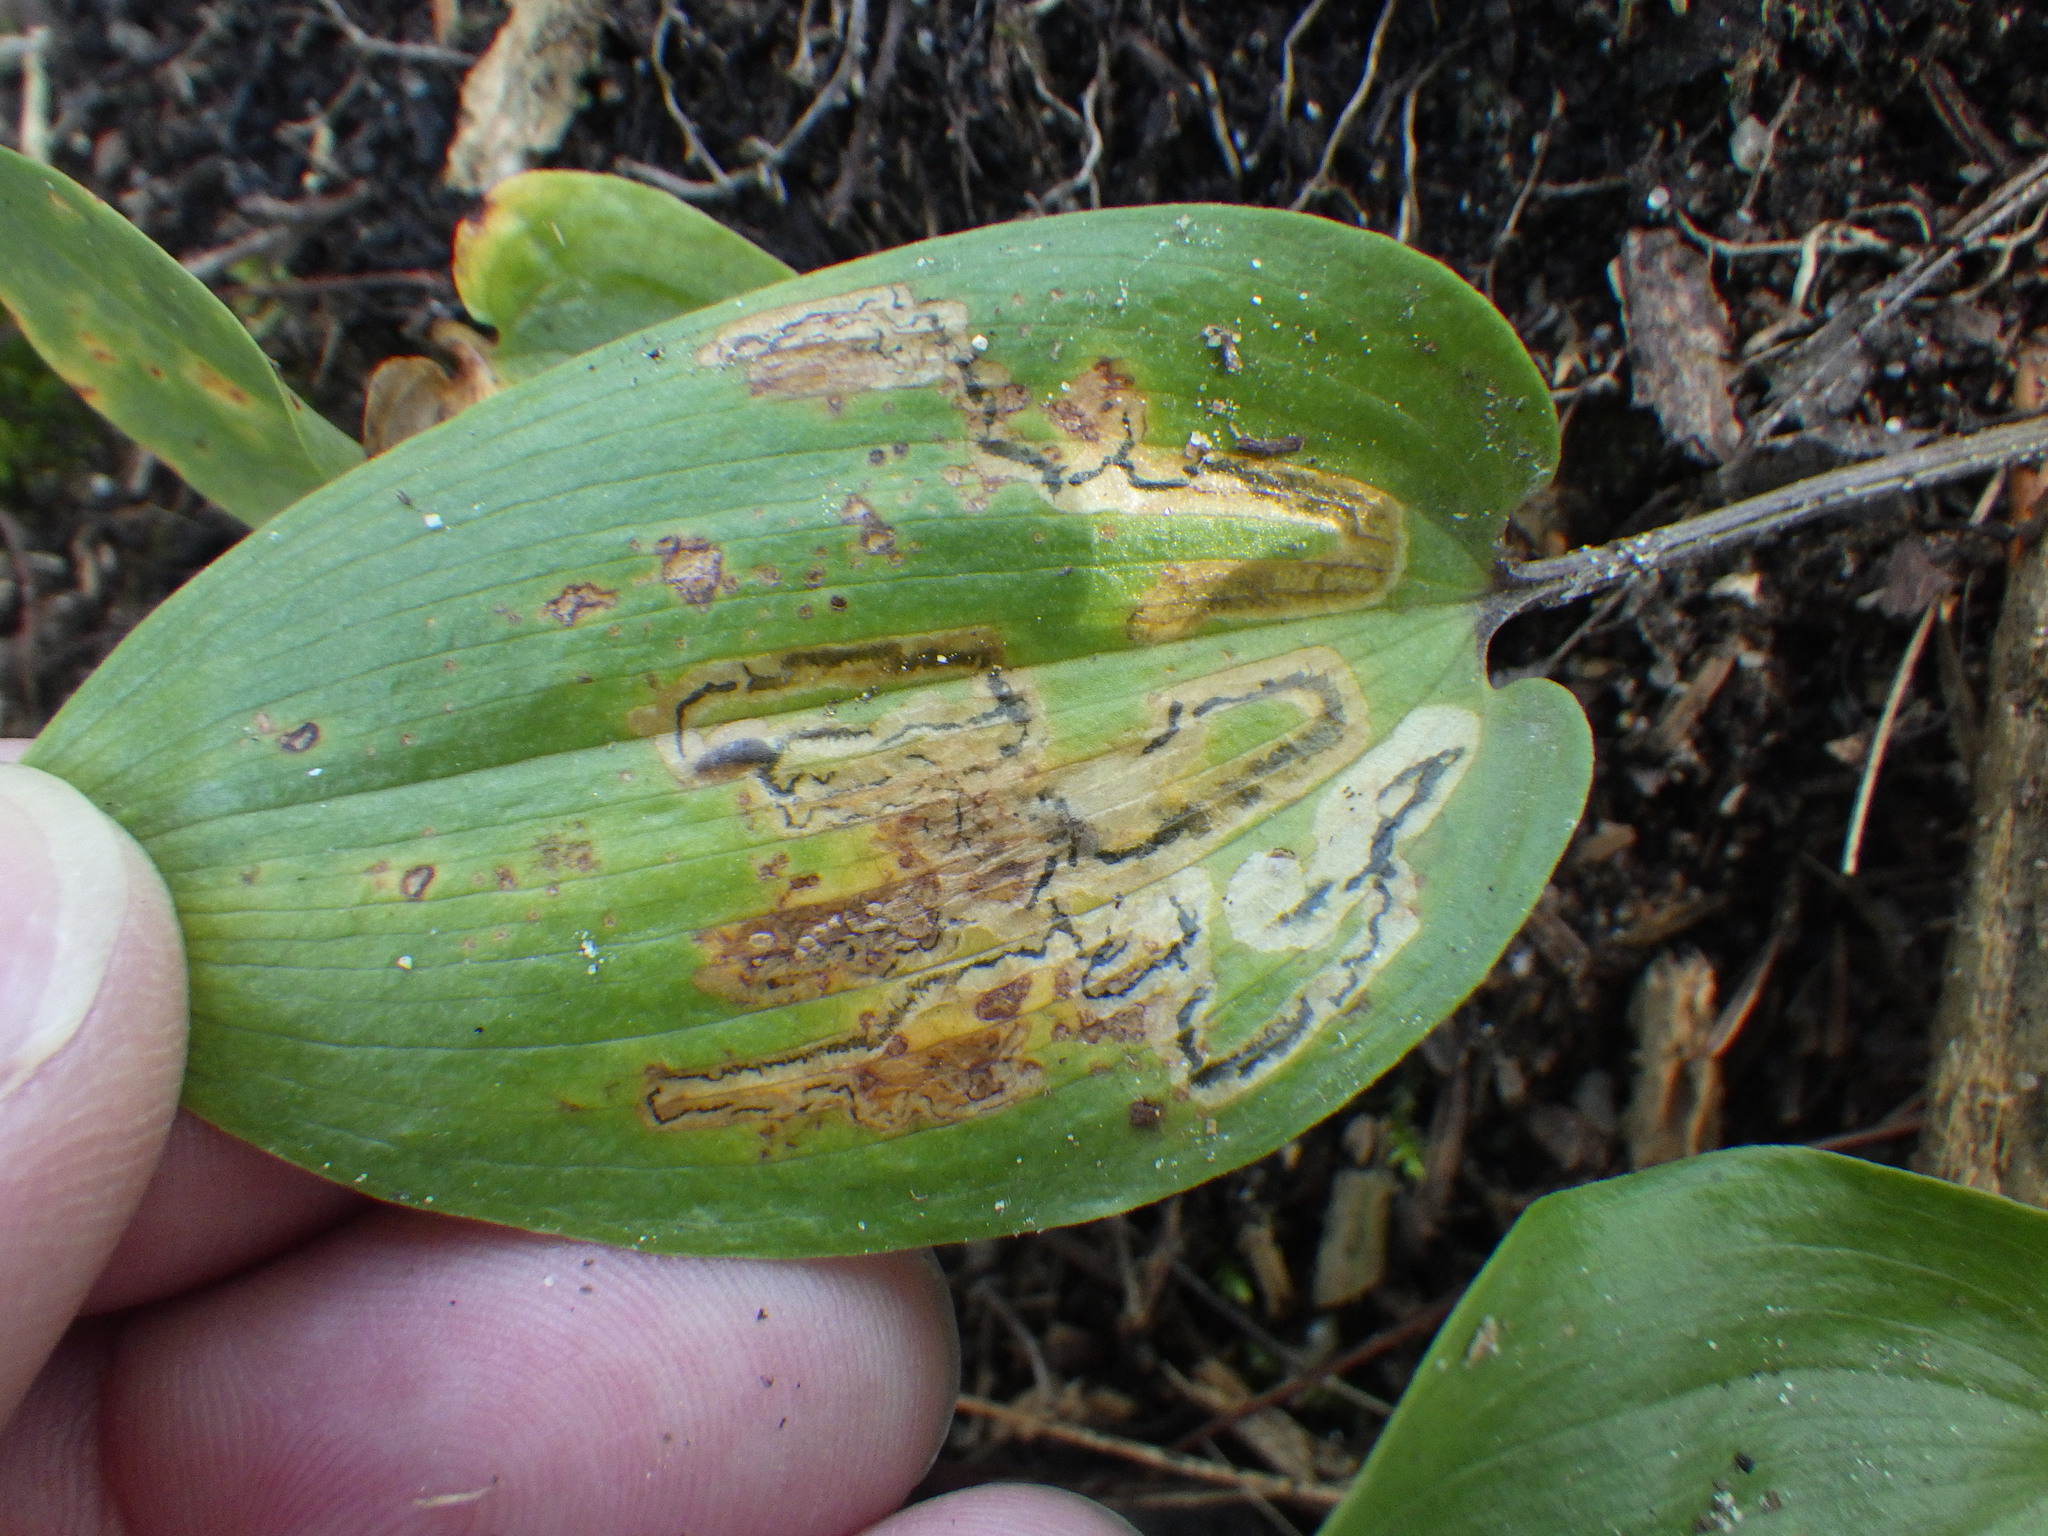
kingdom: Animalia
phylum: Arthropoda
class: Insecta
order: Diptera
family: Agromyzidae
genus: Liriomyza
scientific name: Liriomyza smilacinae
